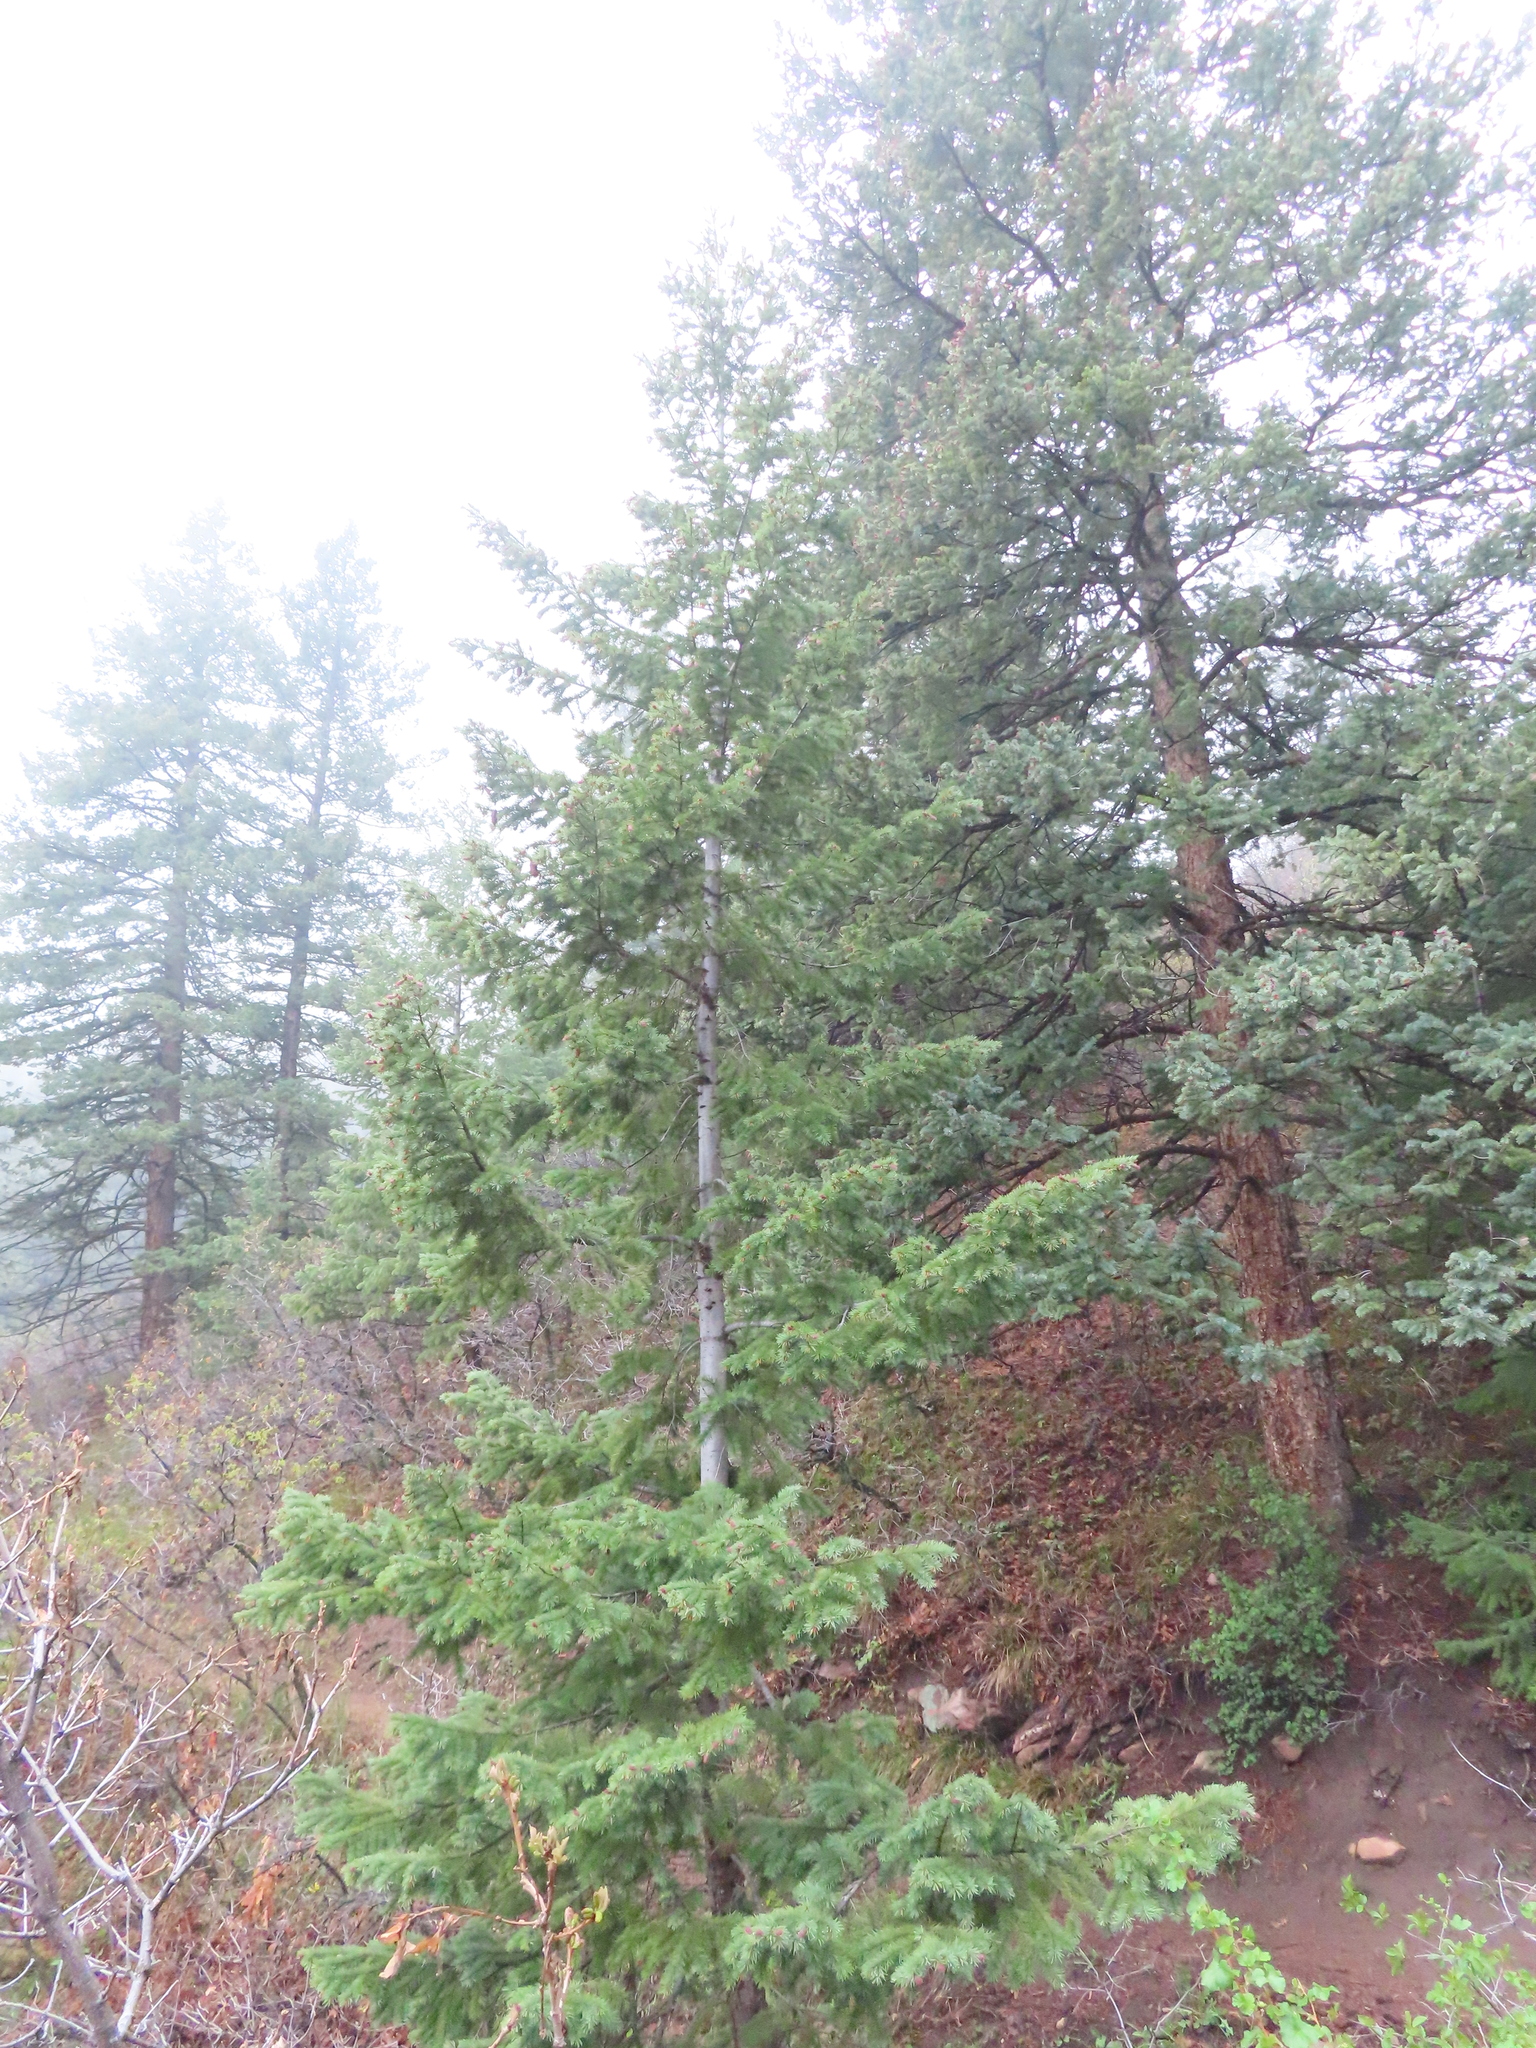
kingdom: Plantae
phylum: Tracheophyta
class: Pinopsida
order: Pinales
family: Pinaceae
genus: Pseudotsuga
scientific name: Pseudotsuga menziesii
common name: Douglas fir
